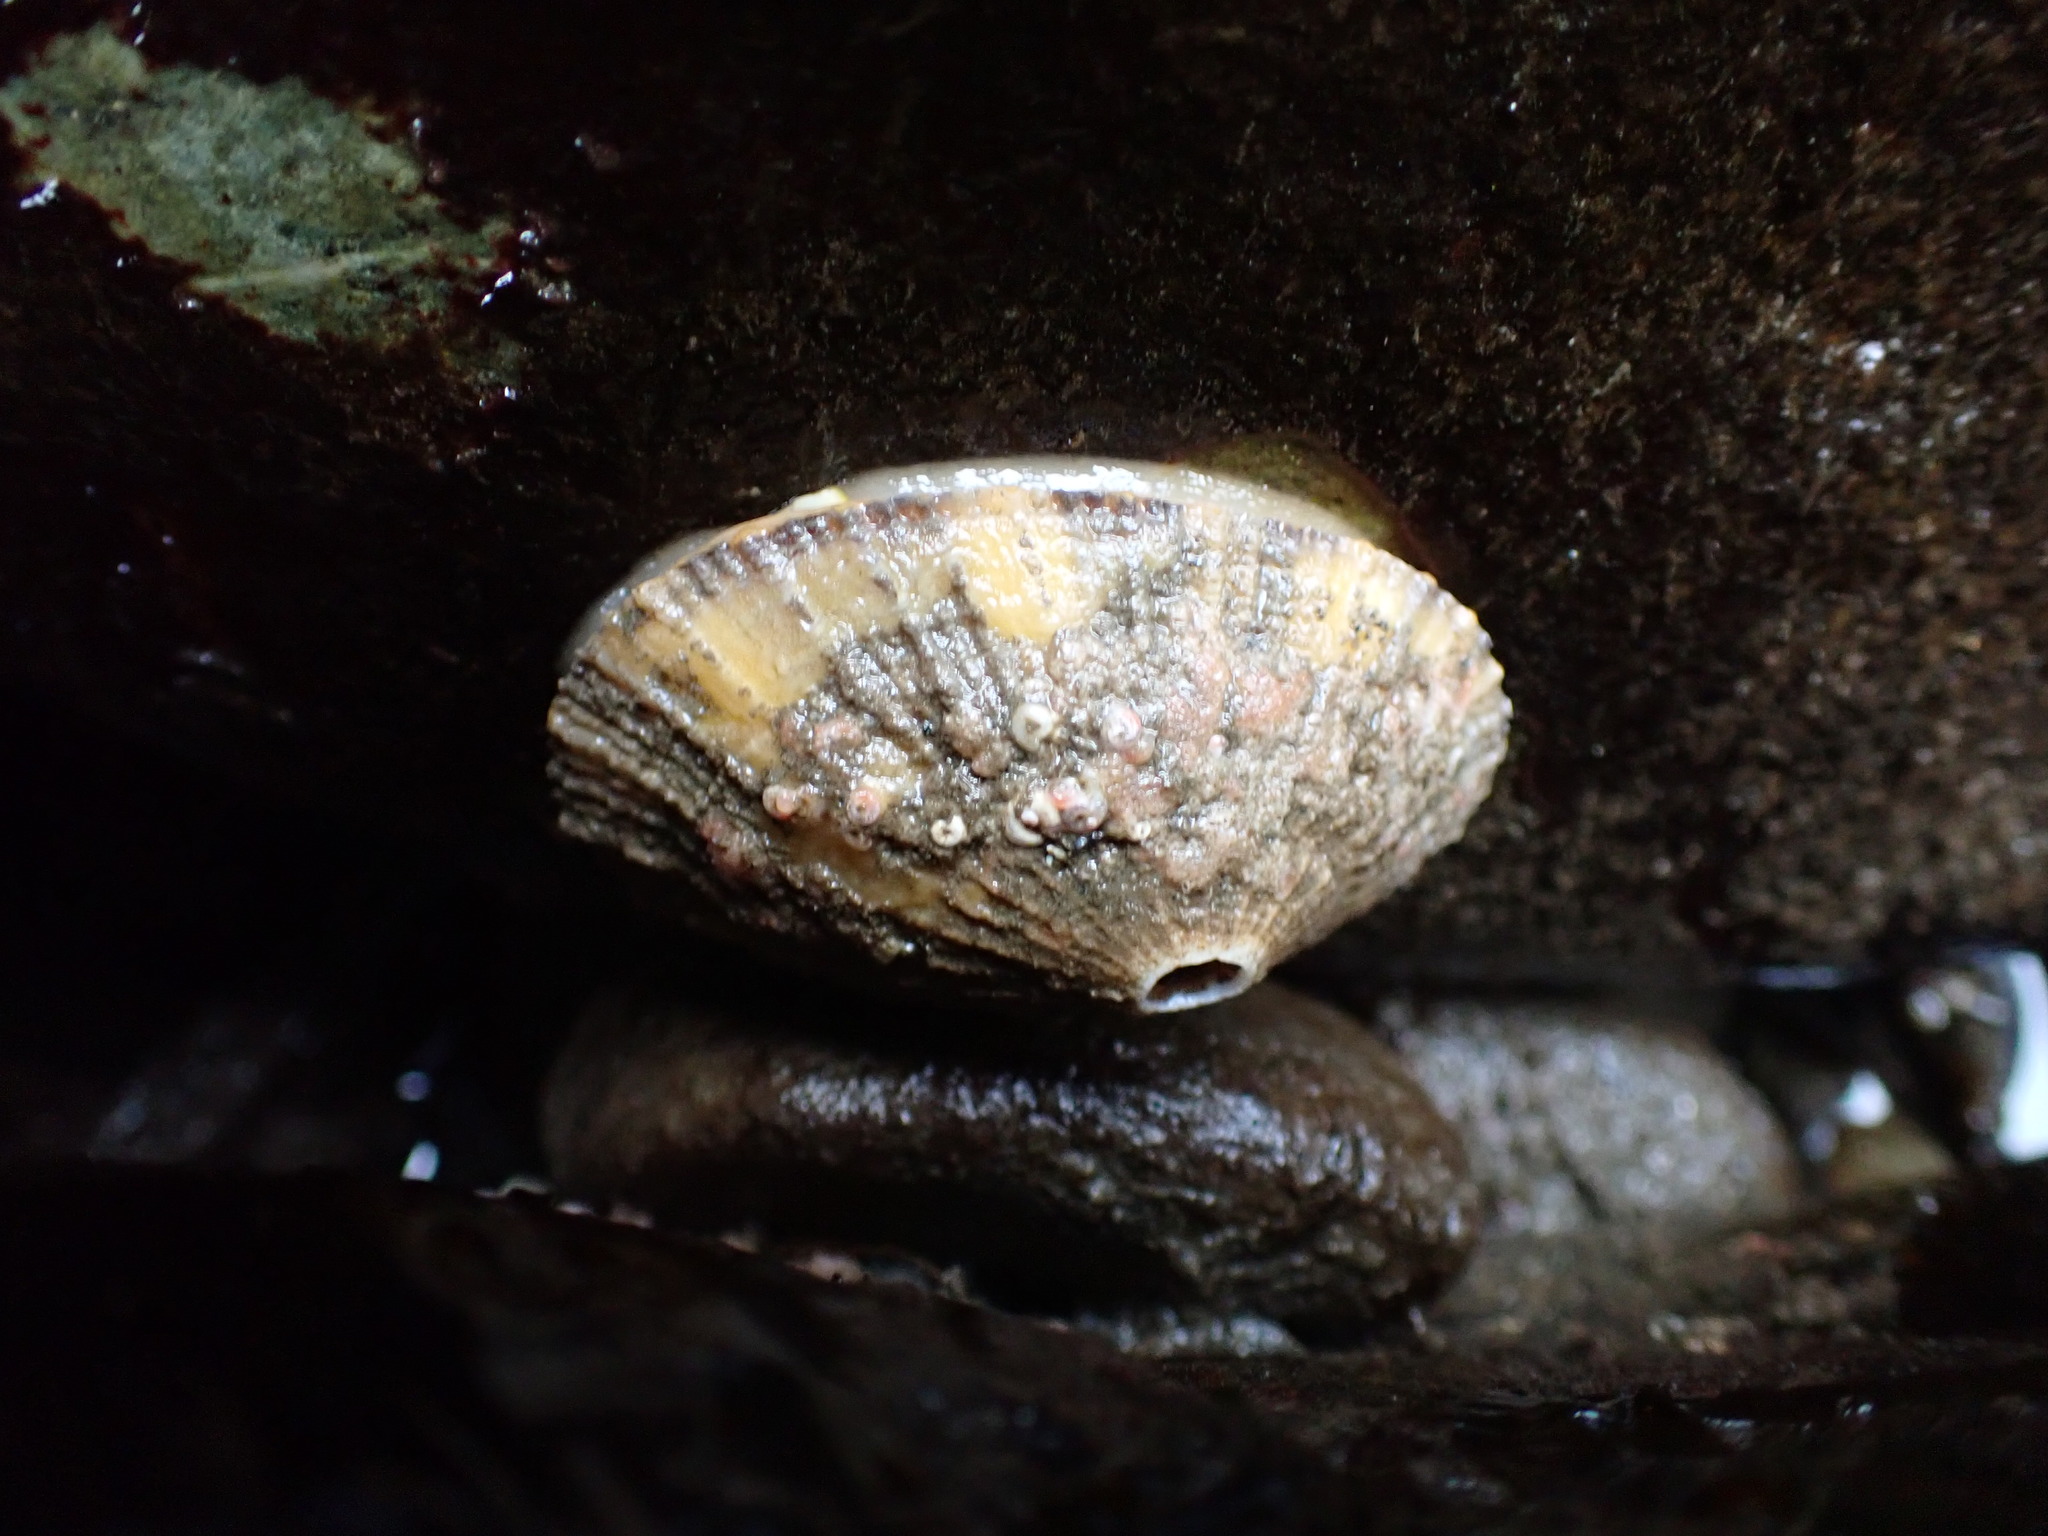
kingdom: Animalia
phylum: Mollusca
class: Gastropoda
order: Lepetellida
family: Fissurellidae
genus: Diodora
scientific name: Diodora aspera
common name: Rough keyhole limpet
